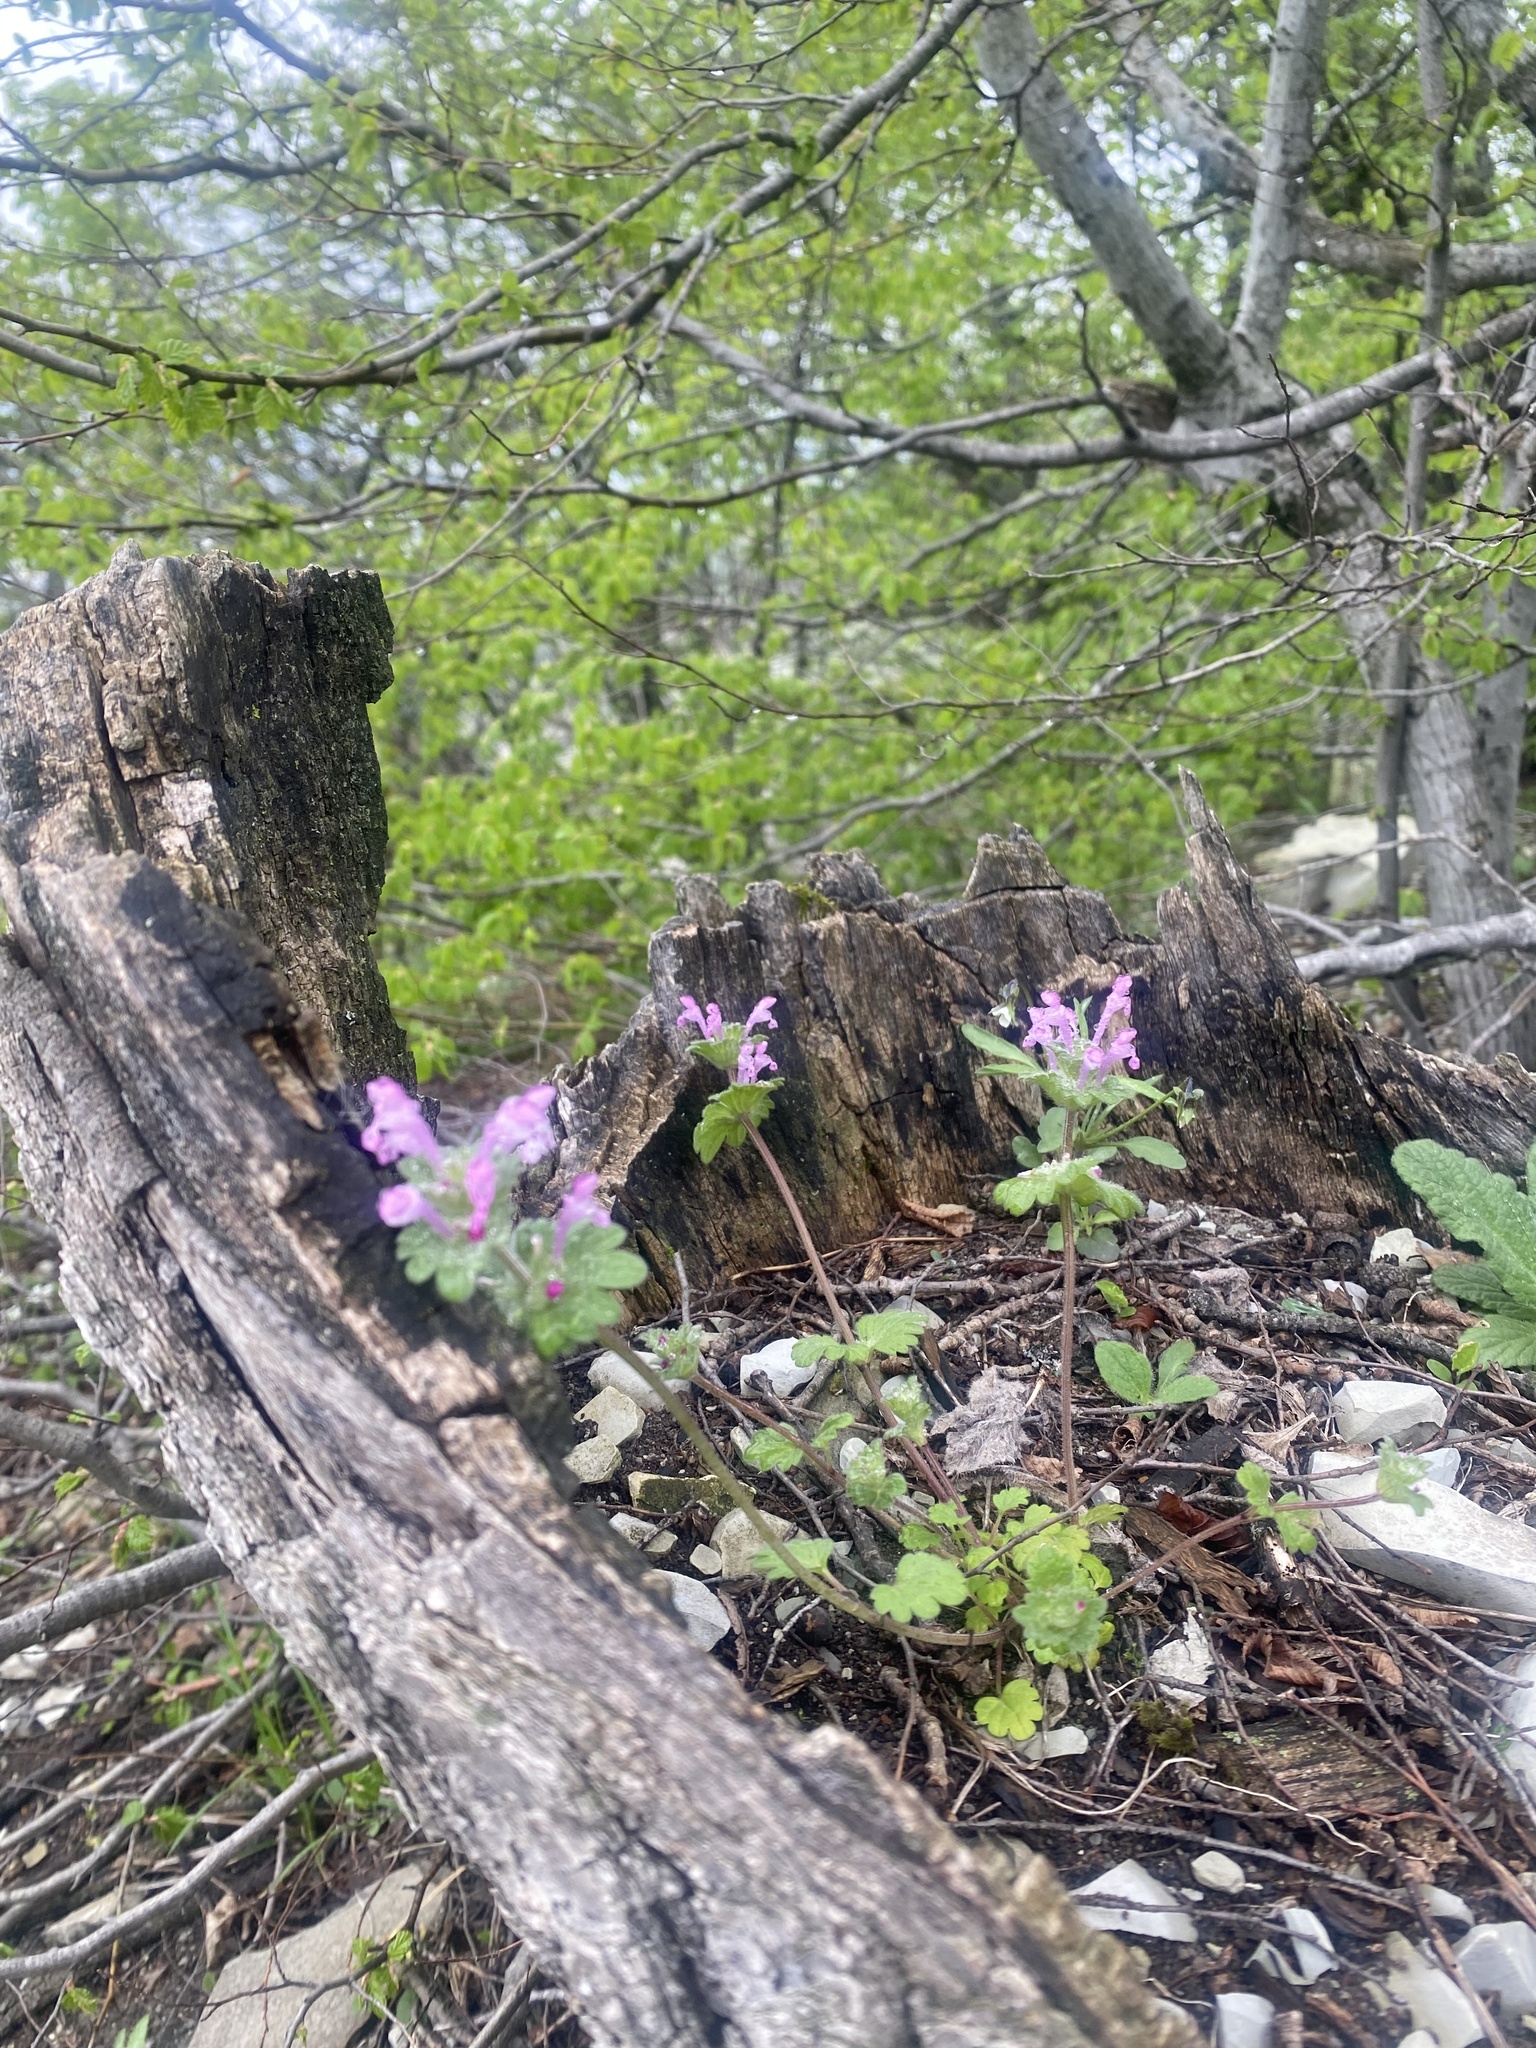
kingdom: Plantae
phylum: Tracheophyta
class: Magnoliopsida
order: Lamiales
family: Lamiaceae
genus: Lamium
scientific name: Lamium amplexicaule
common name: Henbit dead-nettle
